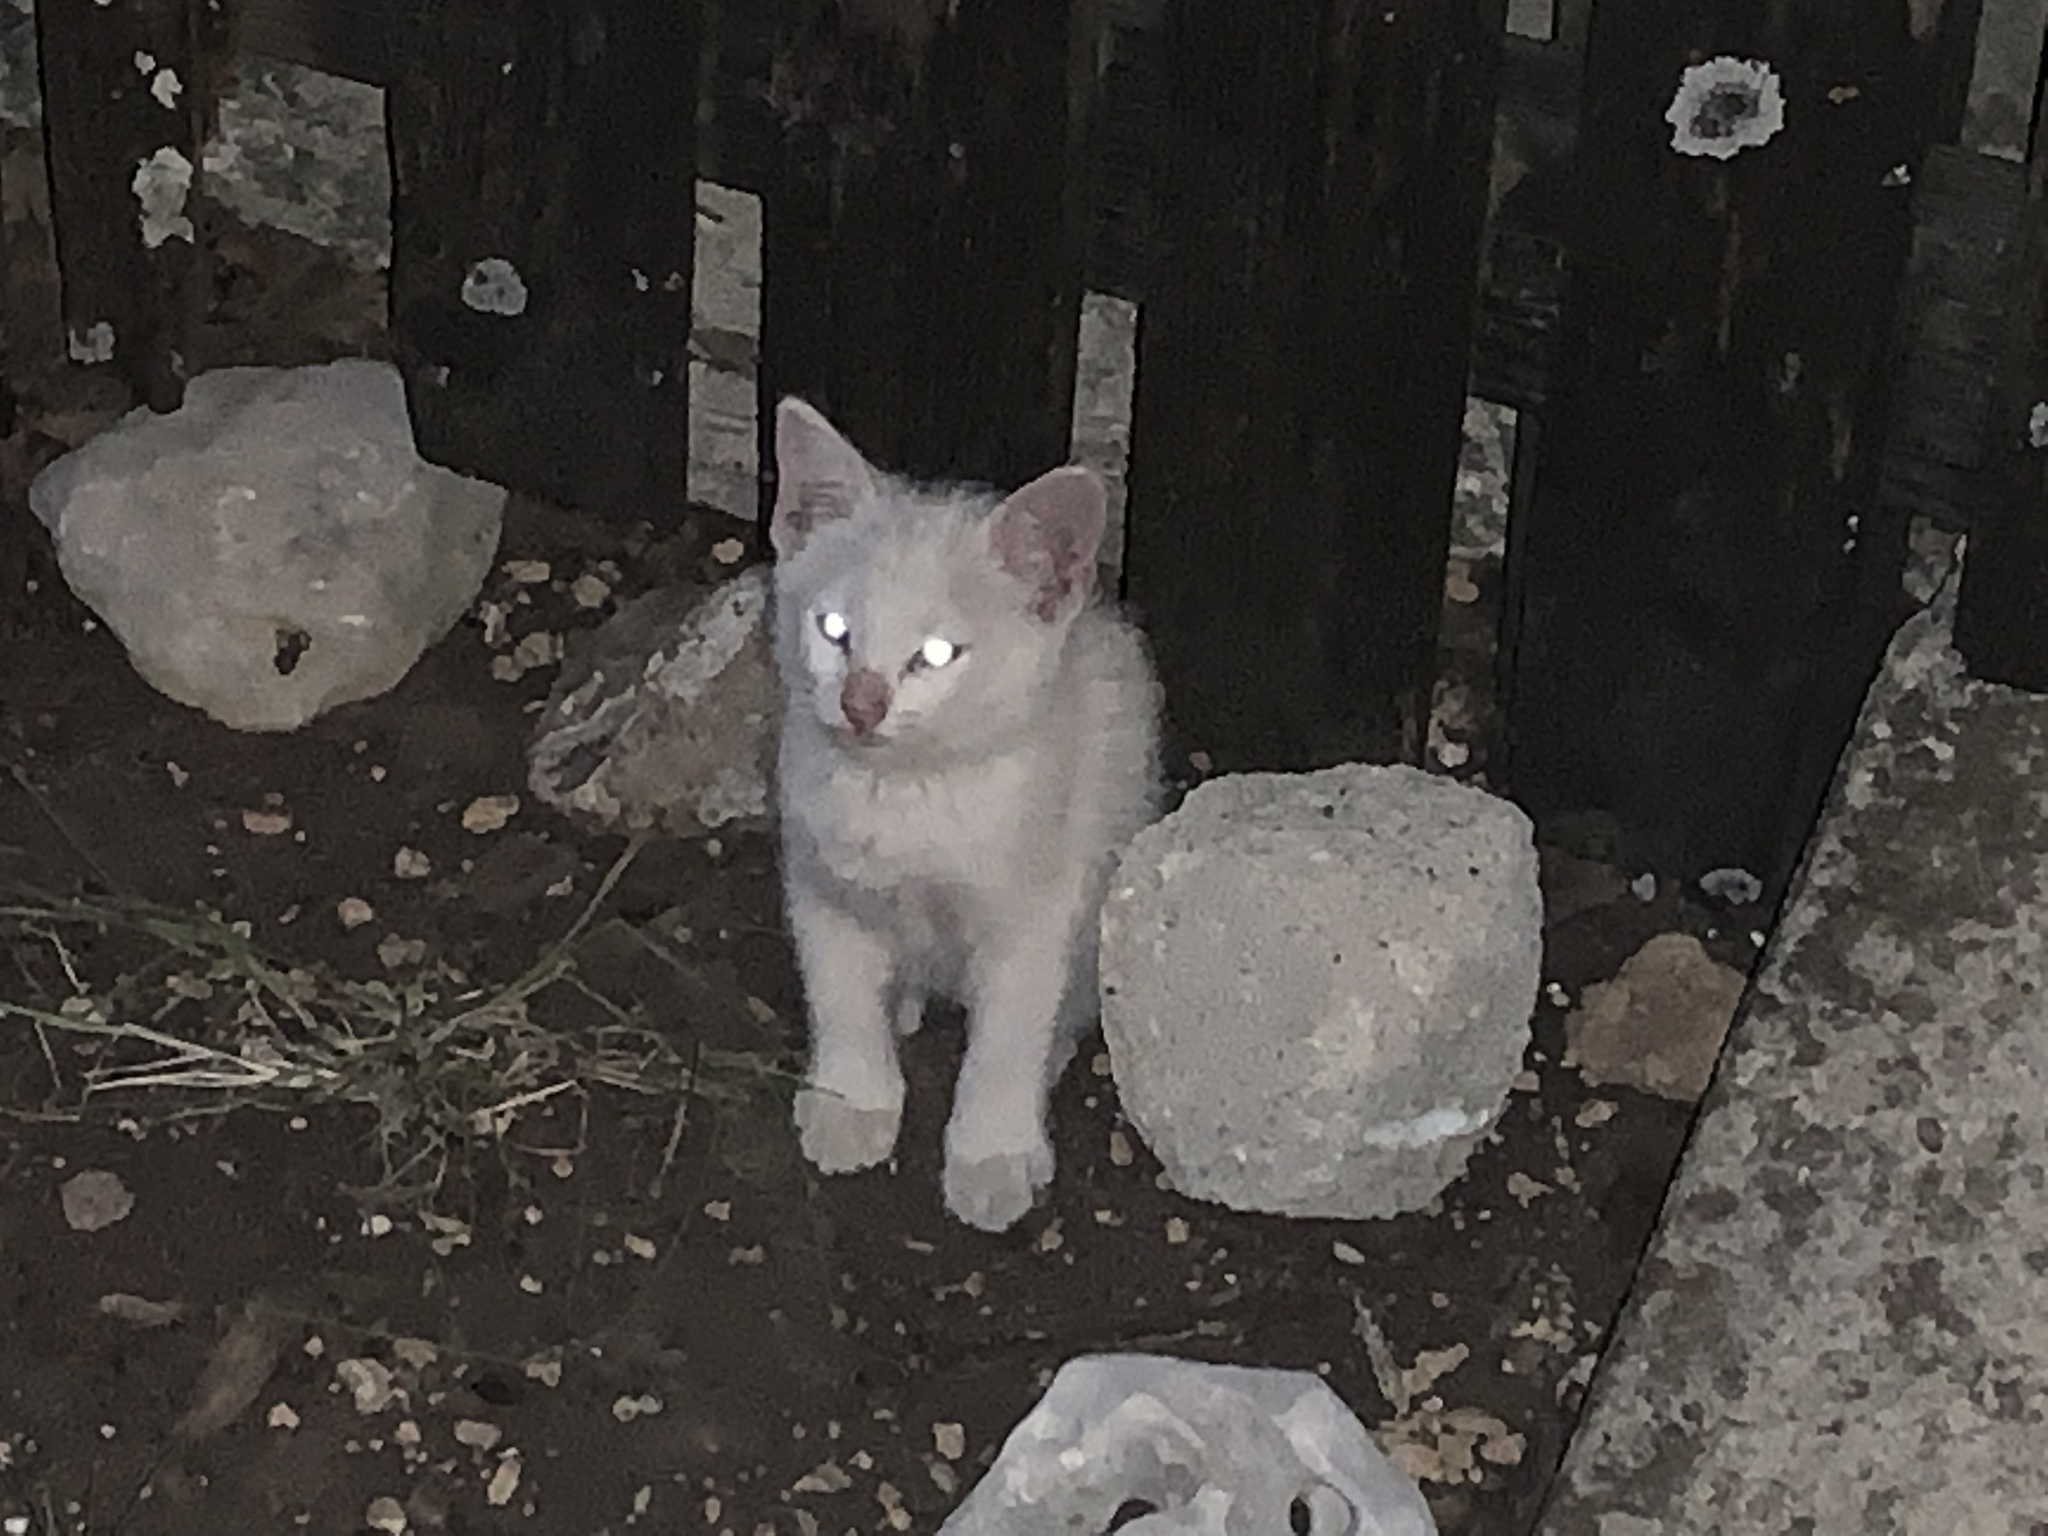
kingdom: Animalia
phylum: Chordata
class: Mammalia
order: Carnivora
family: Felidae
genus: Felis
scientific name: Felis catus
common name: Domestic cat
